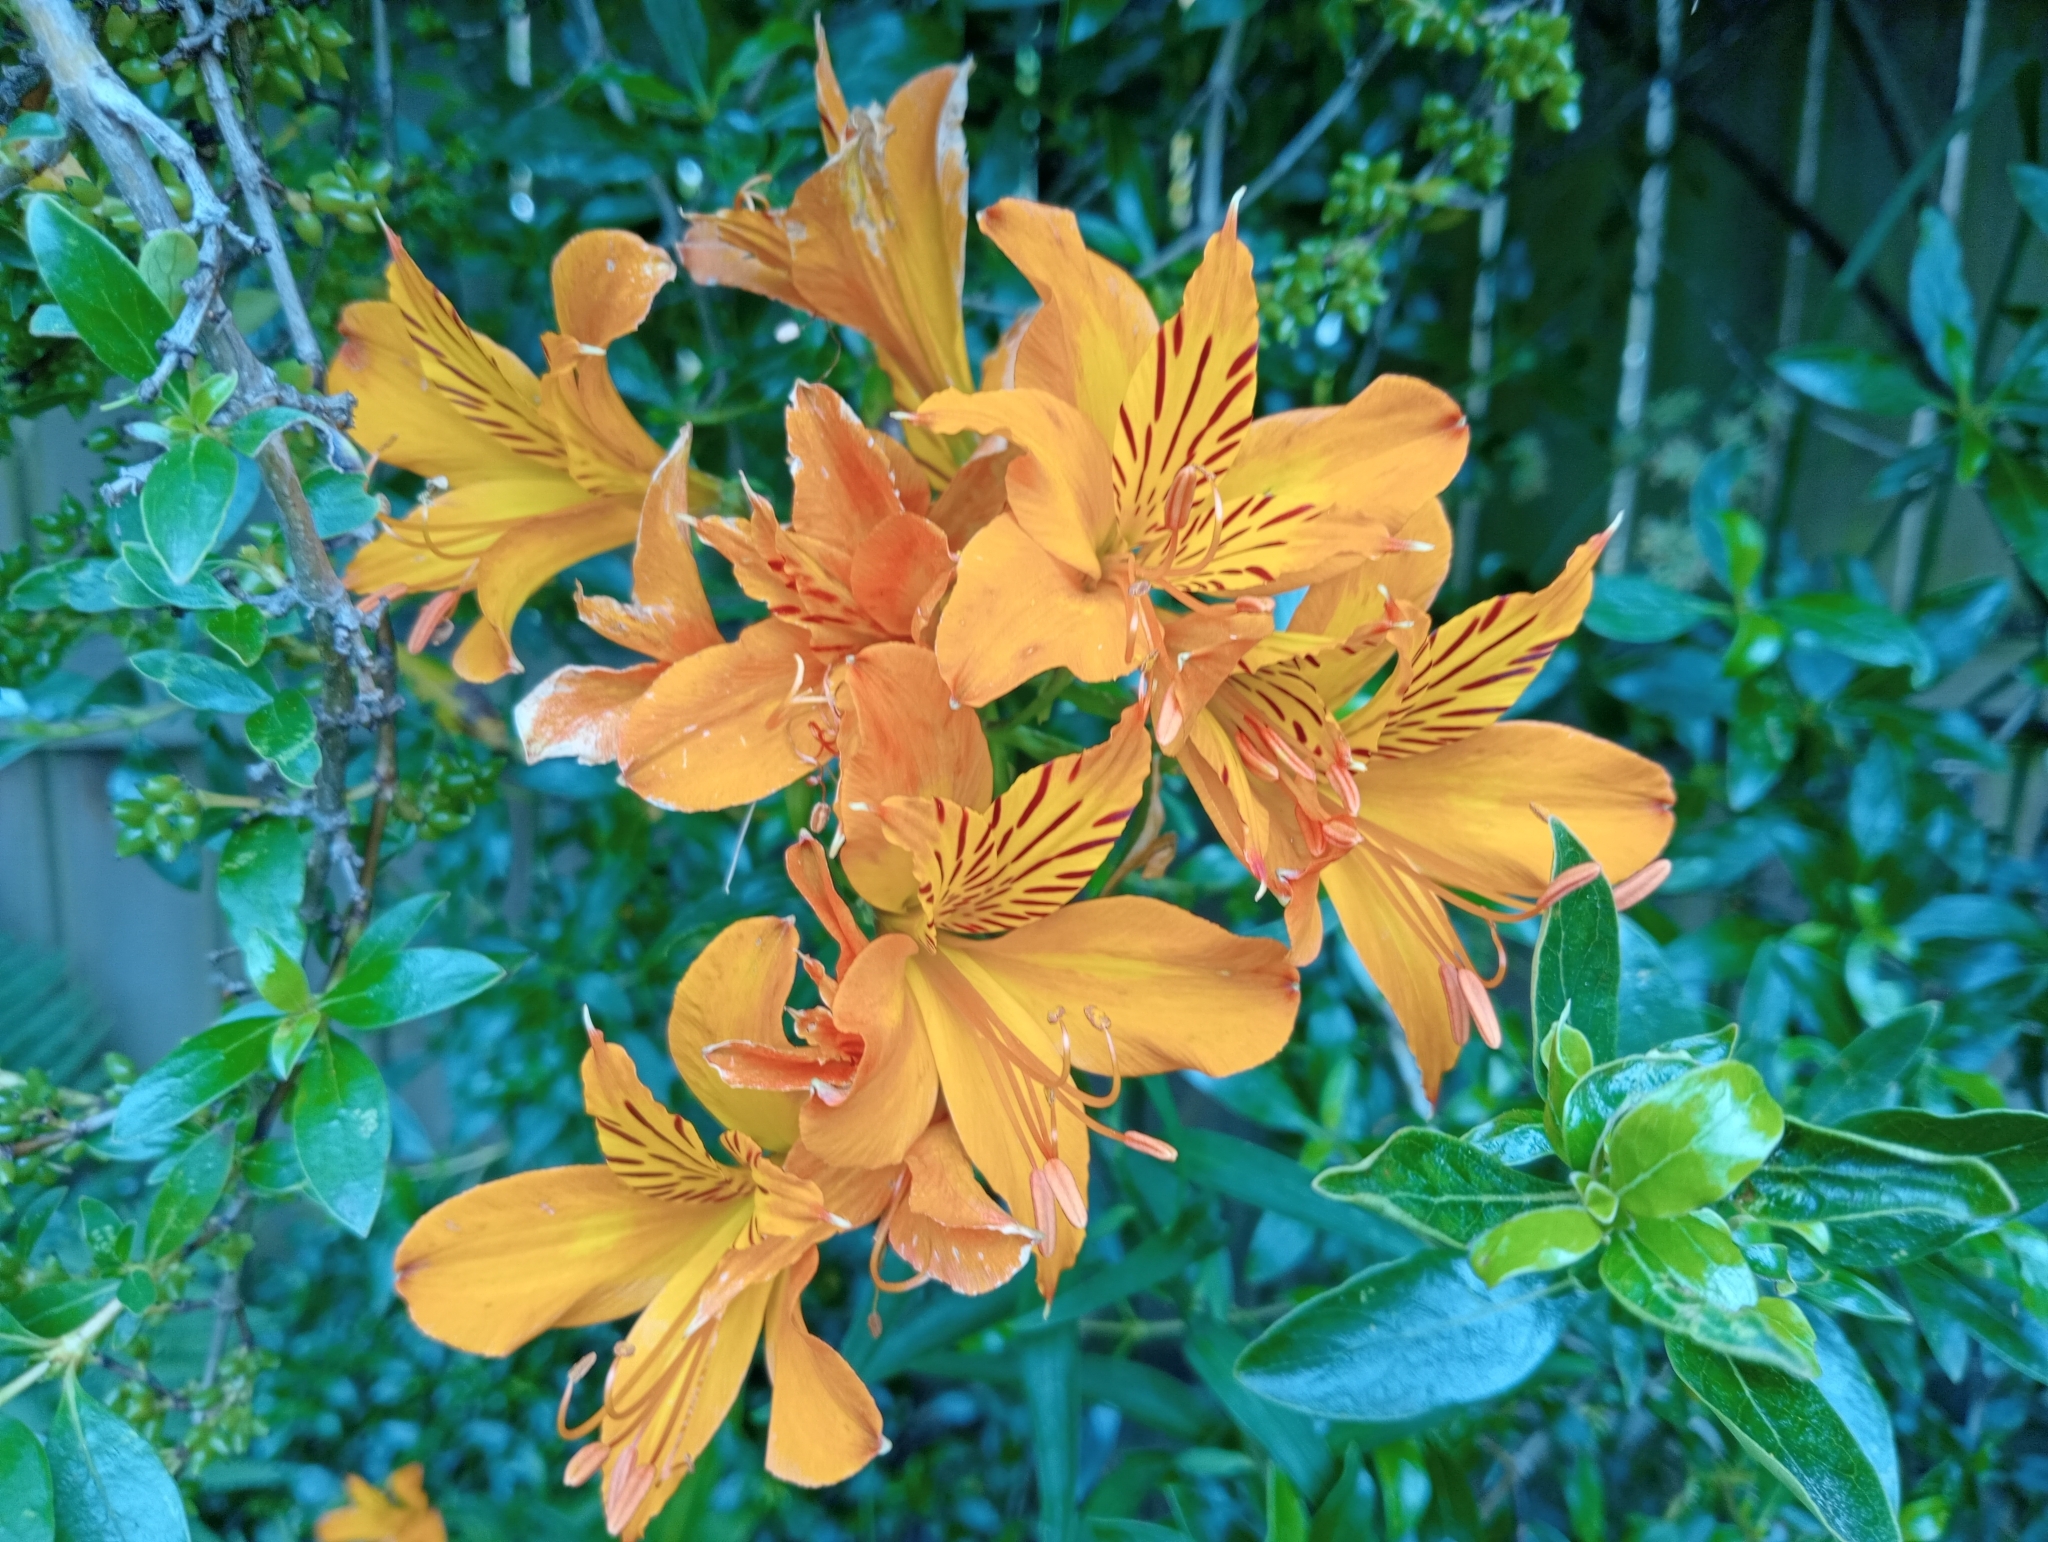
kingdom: Plantae
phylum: Tracheophyta
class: Liliopsida
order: Liliales
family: Alstroemeriaceae
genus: Alstroemeria
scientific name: Alstroemeria aurea
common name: Peruvian lily
